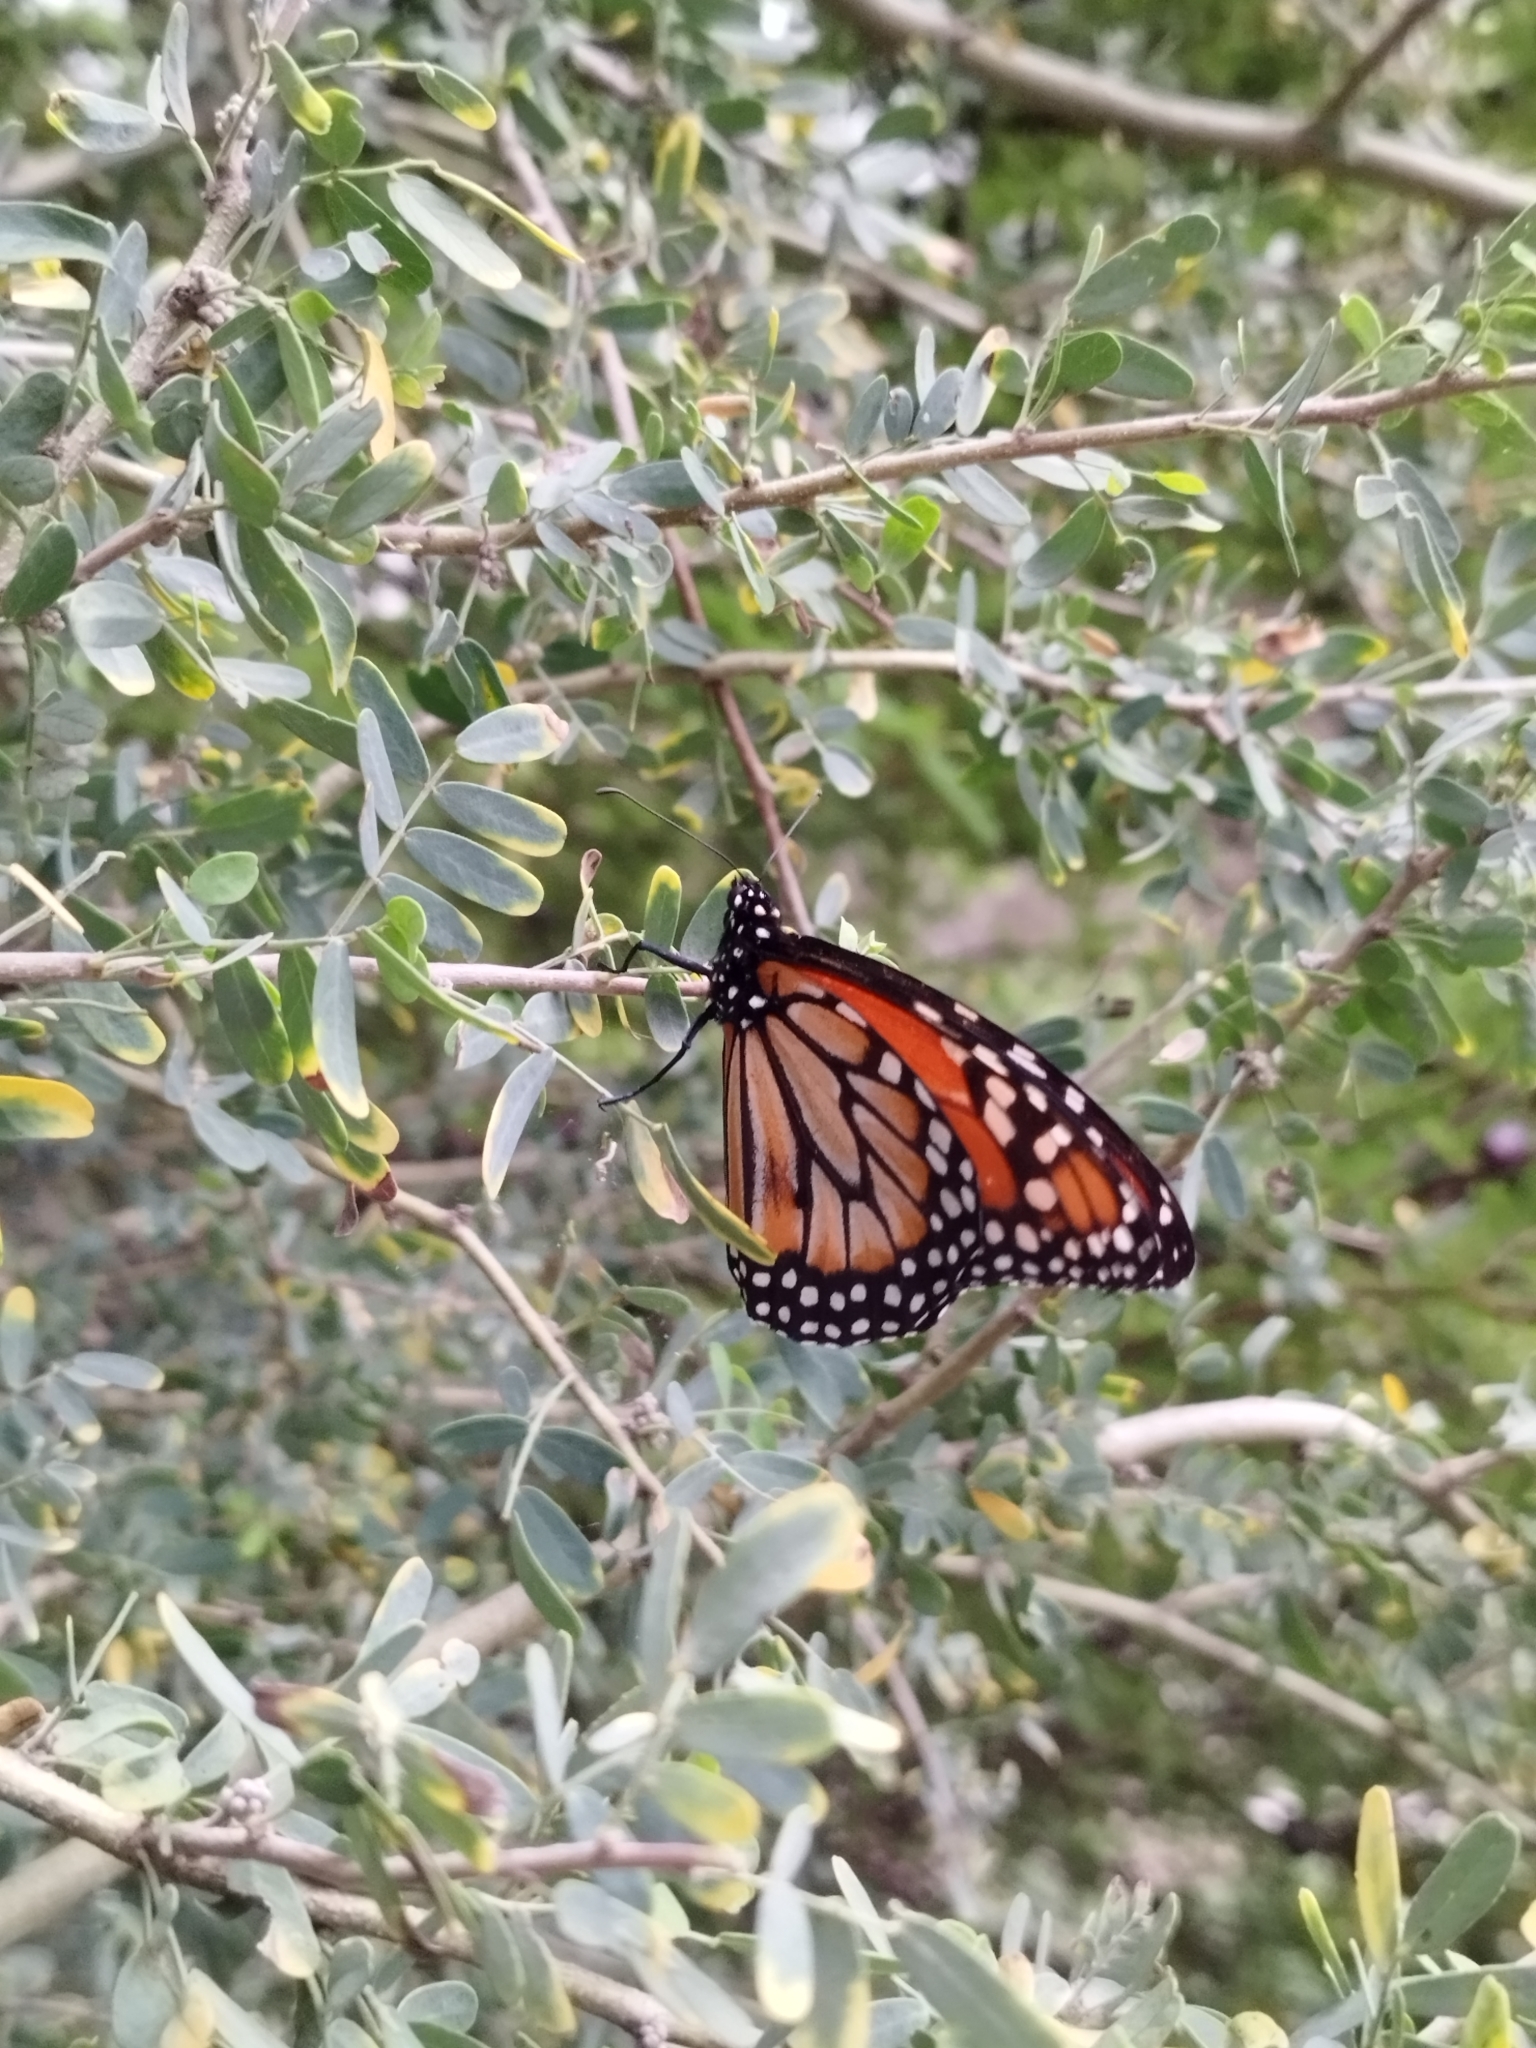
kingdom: Animalia
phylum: Arthropoda
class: Insecta
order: Lepidoptera
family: Nymphalidae
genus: Danaus
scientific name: Danaus erippus
